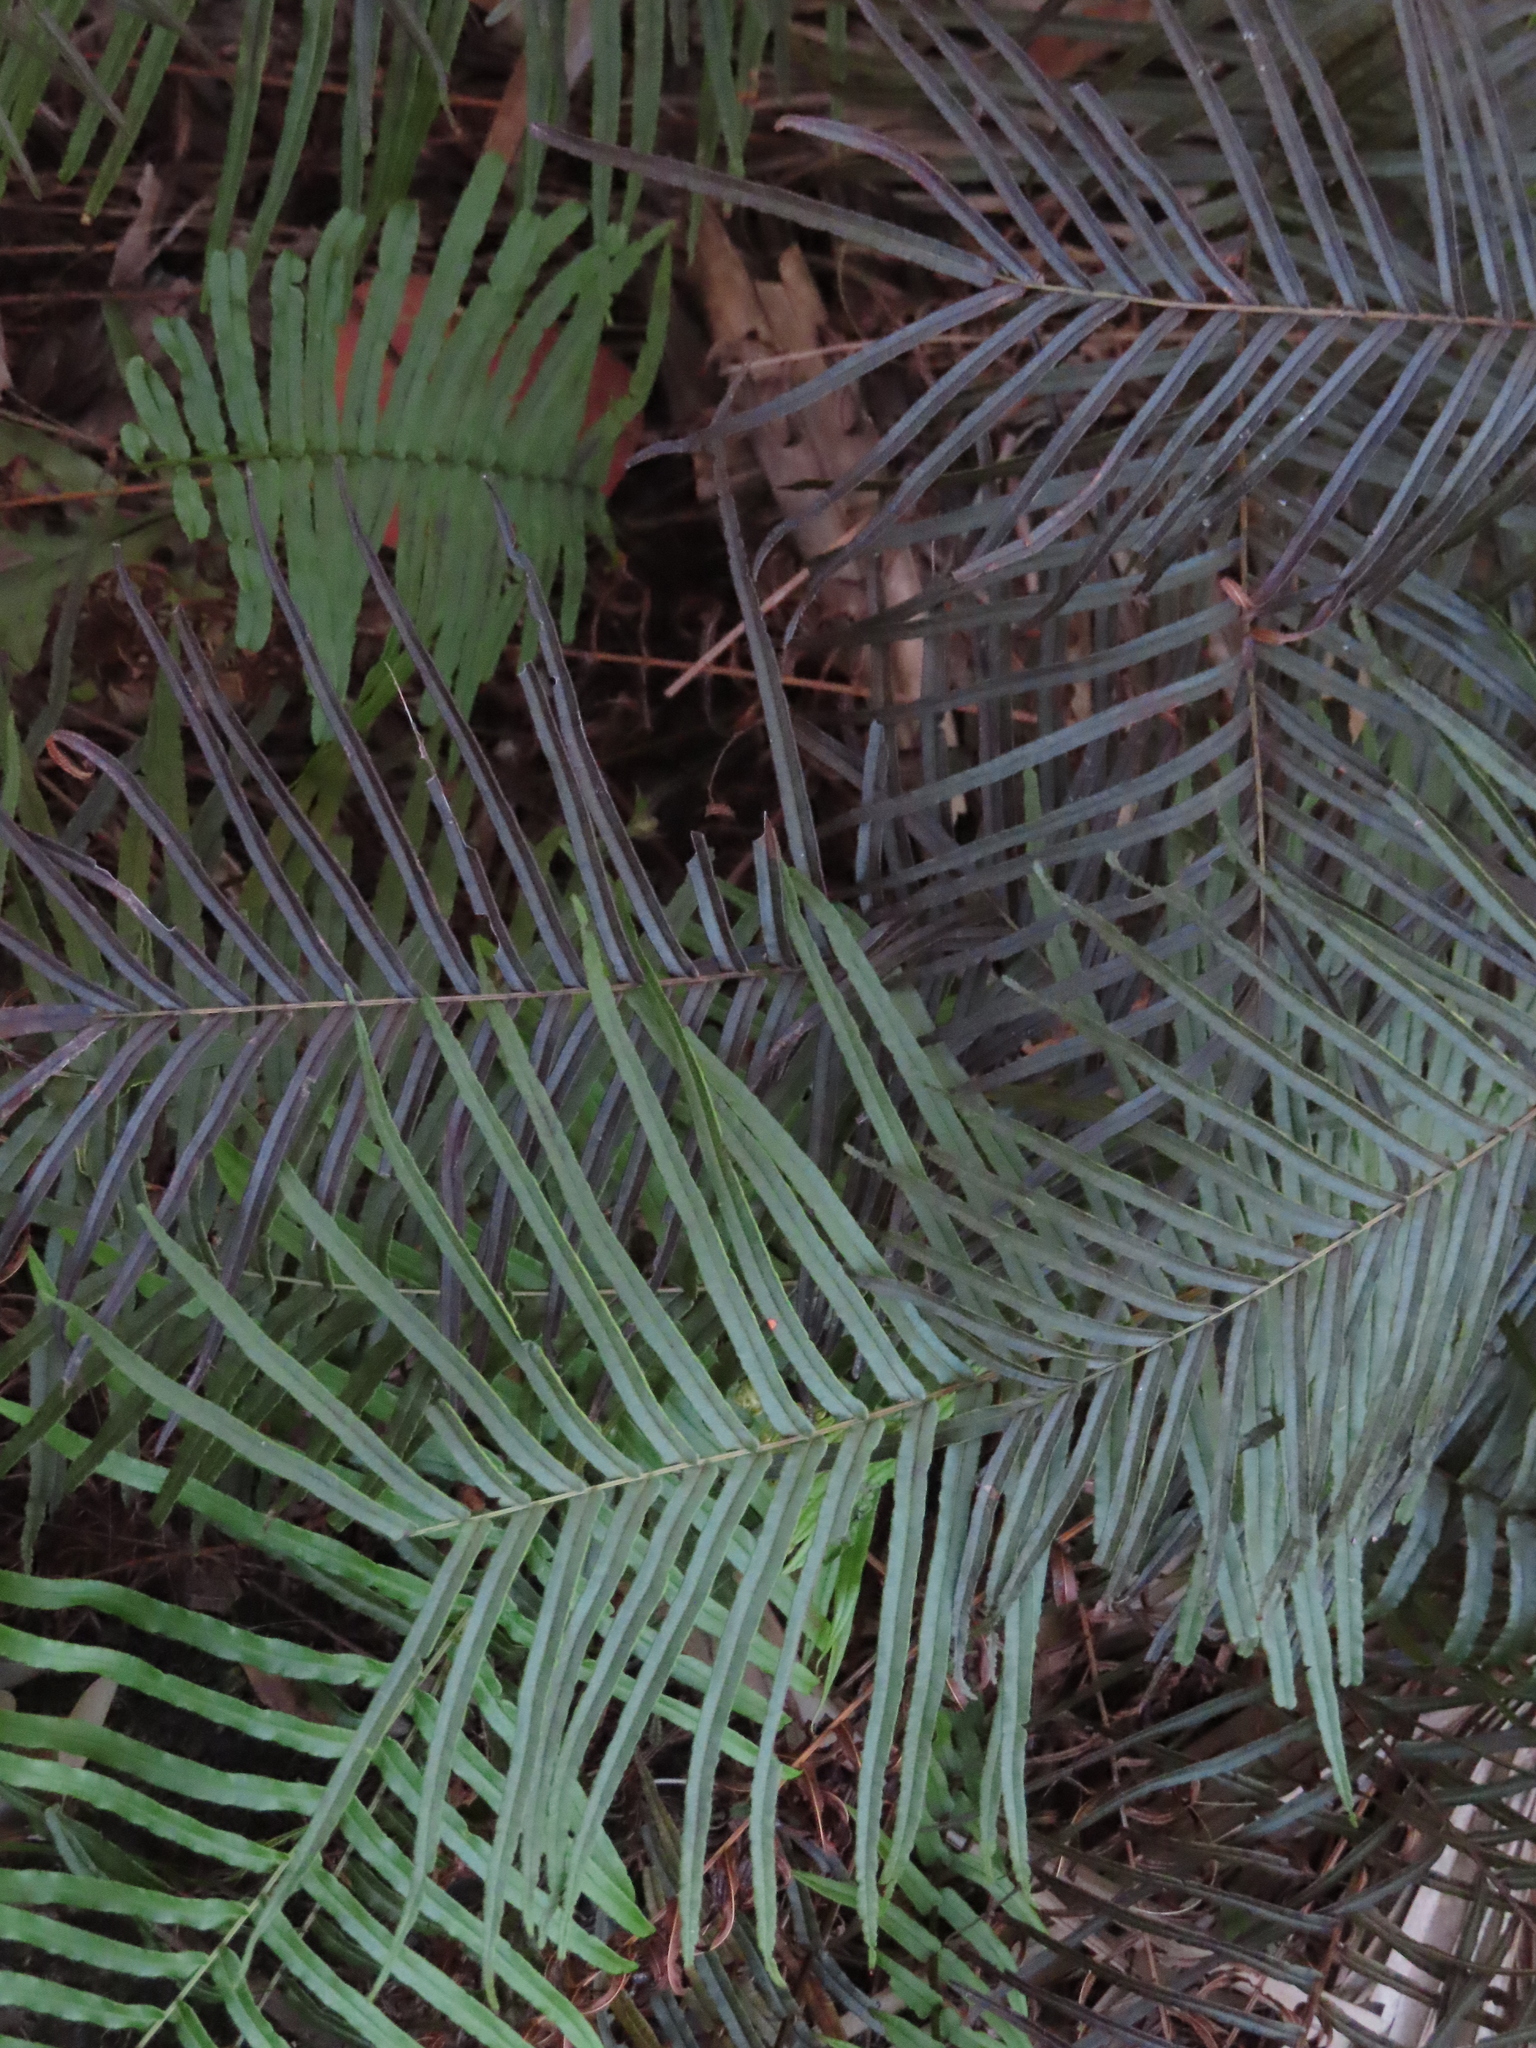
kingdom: Plantae
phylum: Tracheophyta
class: Polypodiopsida
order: Polypodiales
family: Pteridaceae
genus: Pteris
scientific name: Pteris vittata
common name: Ladder brake
